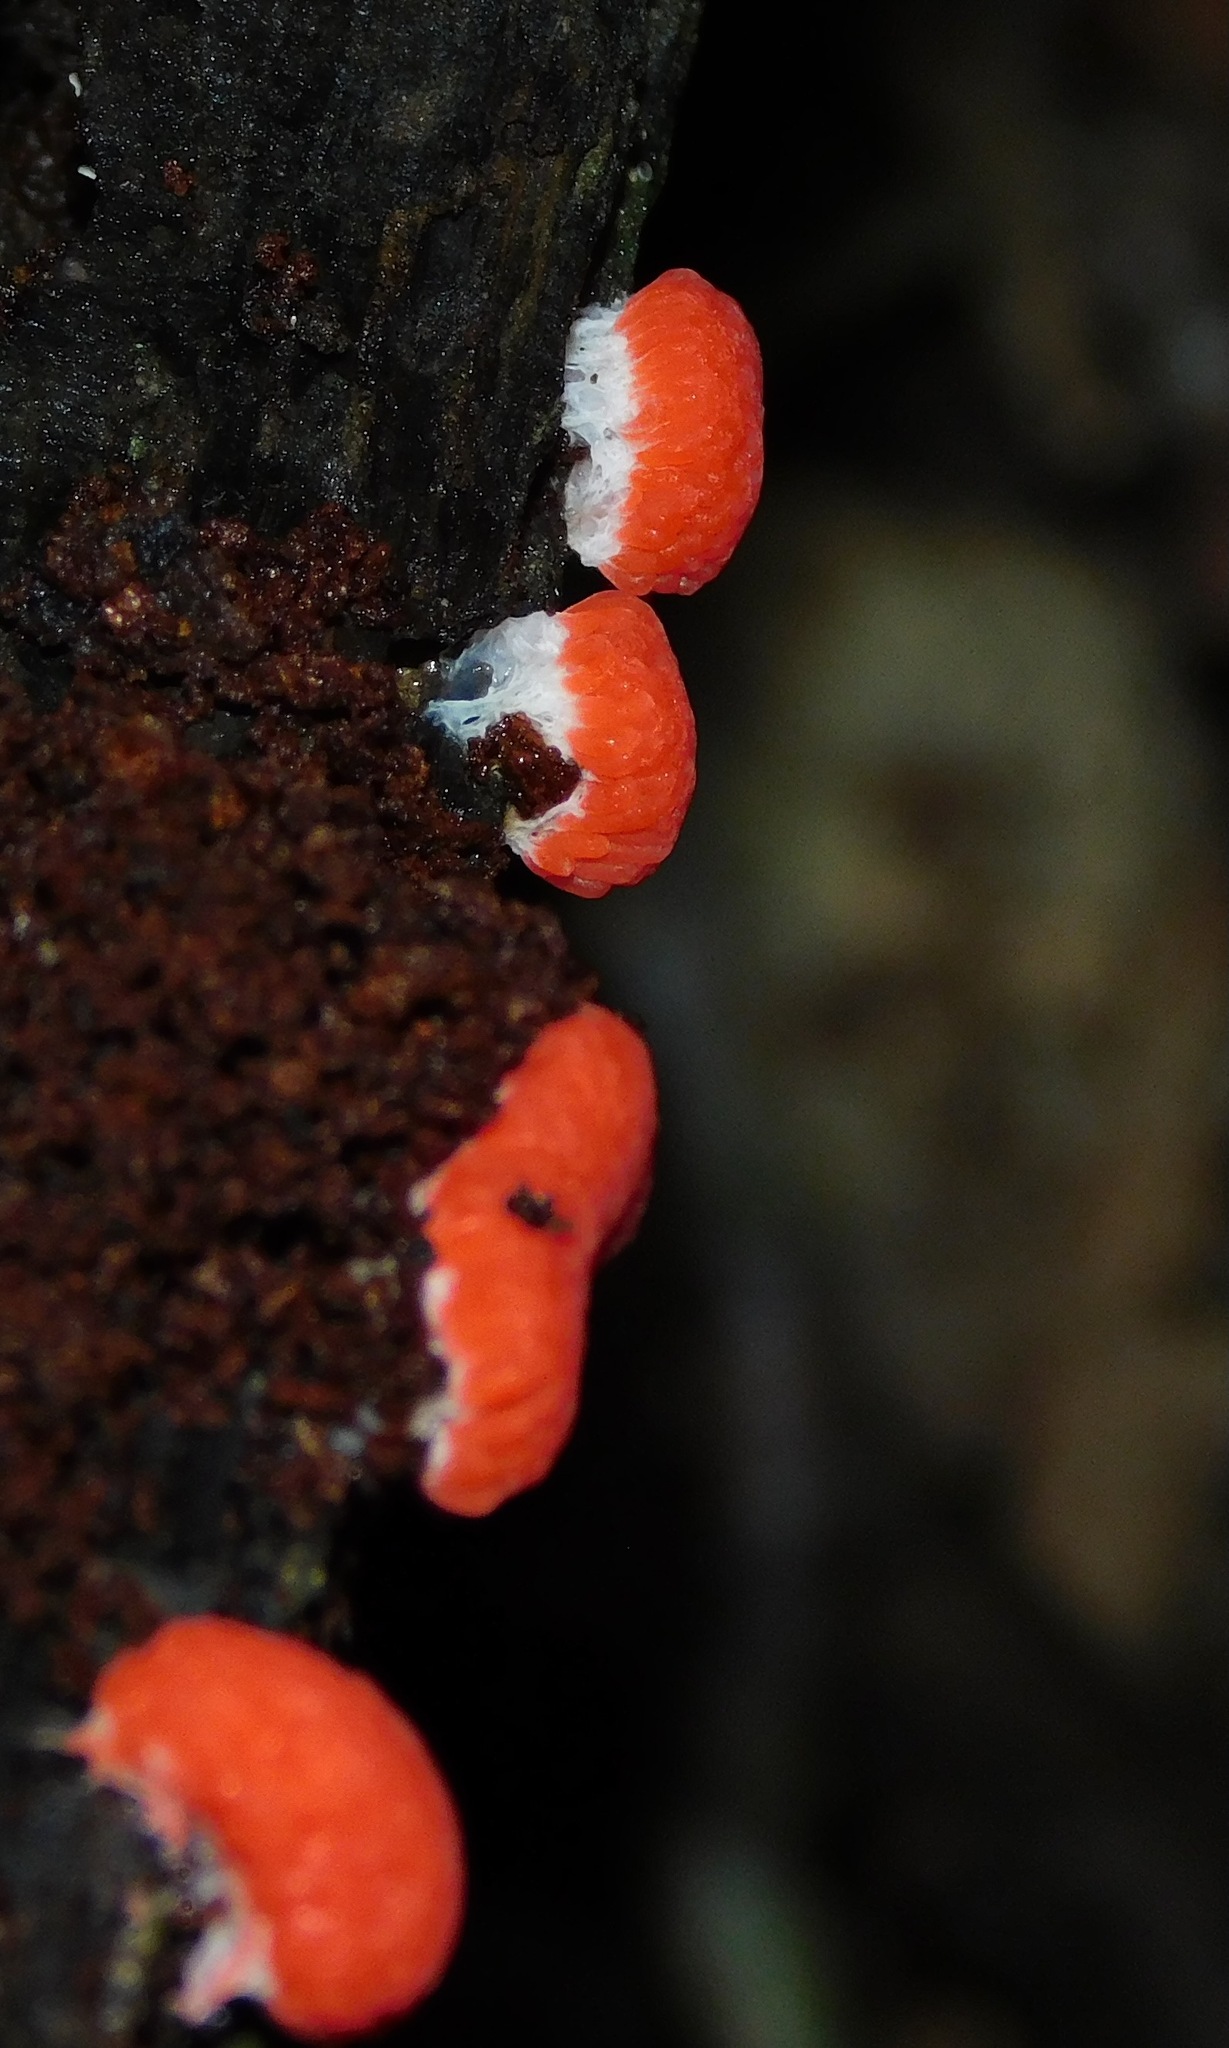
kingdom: Protozoa
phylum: Mycetozoa
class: Myxomycetes
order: Cribrariales
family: Tubiferaceae
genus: Tubifera
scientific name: Tubifera ferruginosa
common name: Red raspberry slime mold
